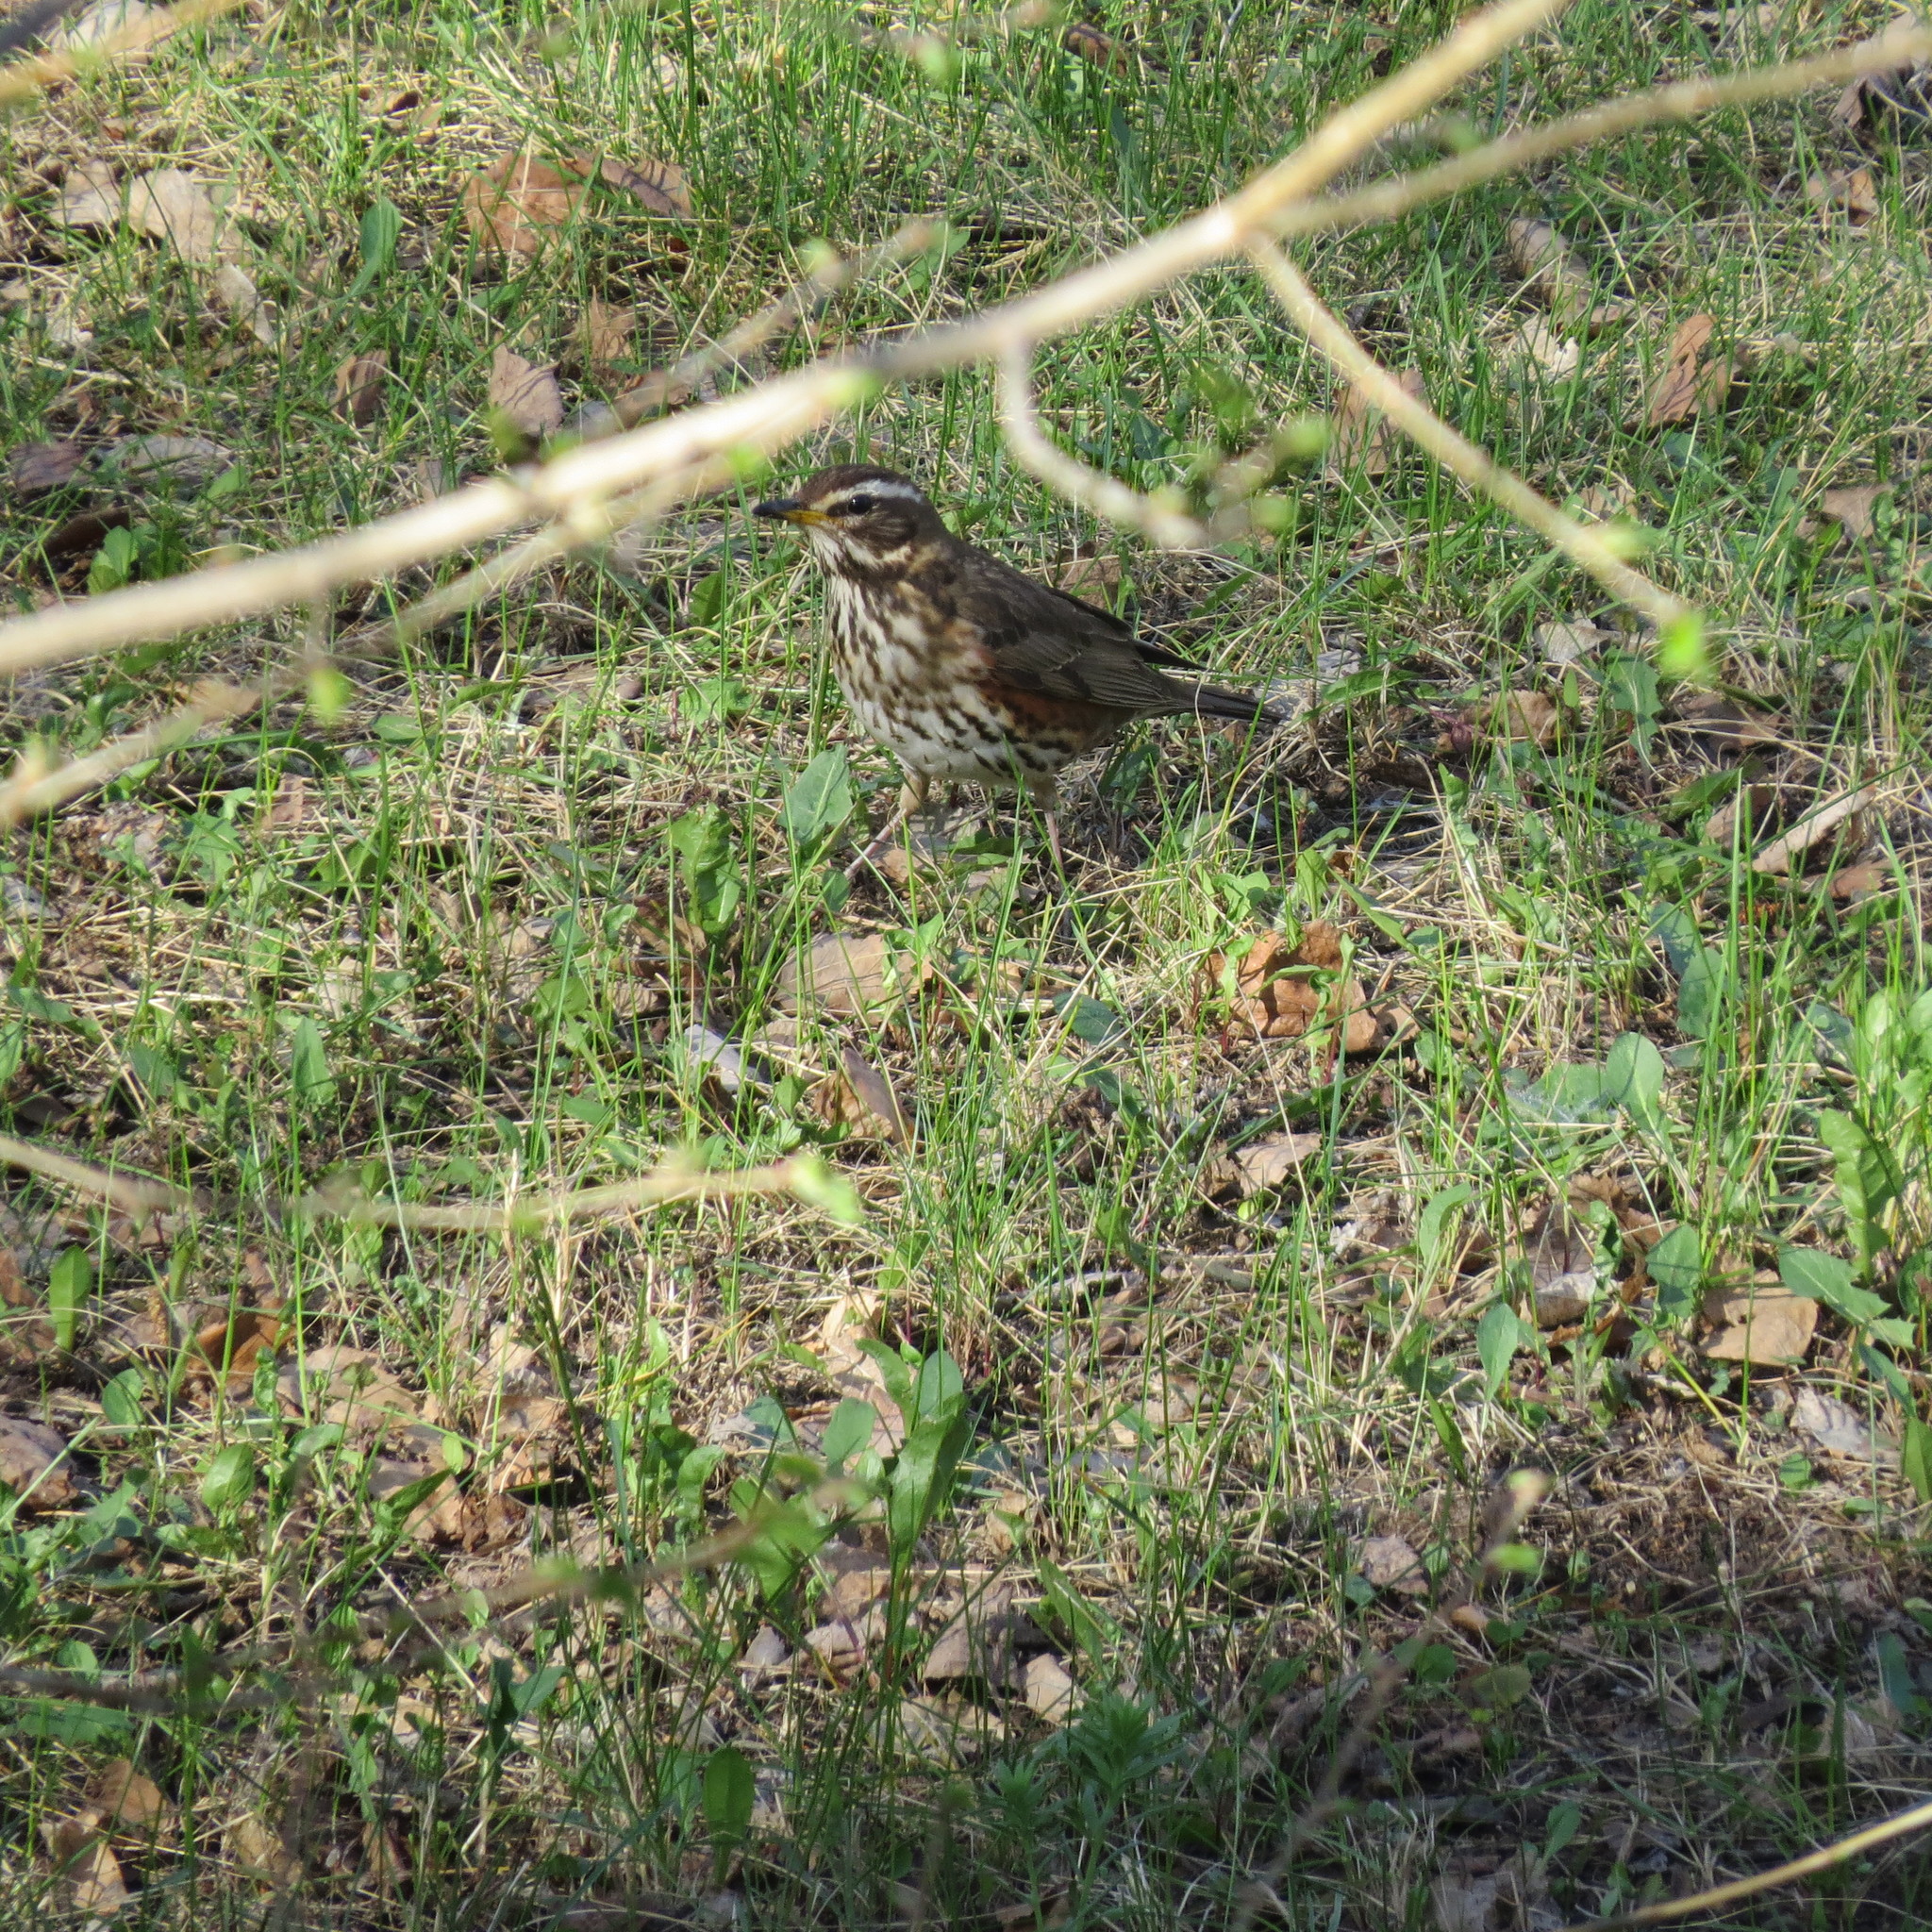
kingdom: Animalia
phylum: Chordata
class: Aves
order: Passeriformes
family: Turdidae
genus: Turdus
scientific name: Turdus iliacus
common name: Redwing
